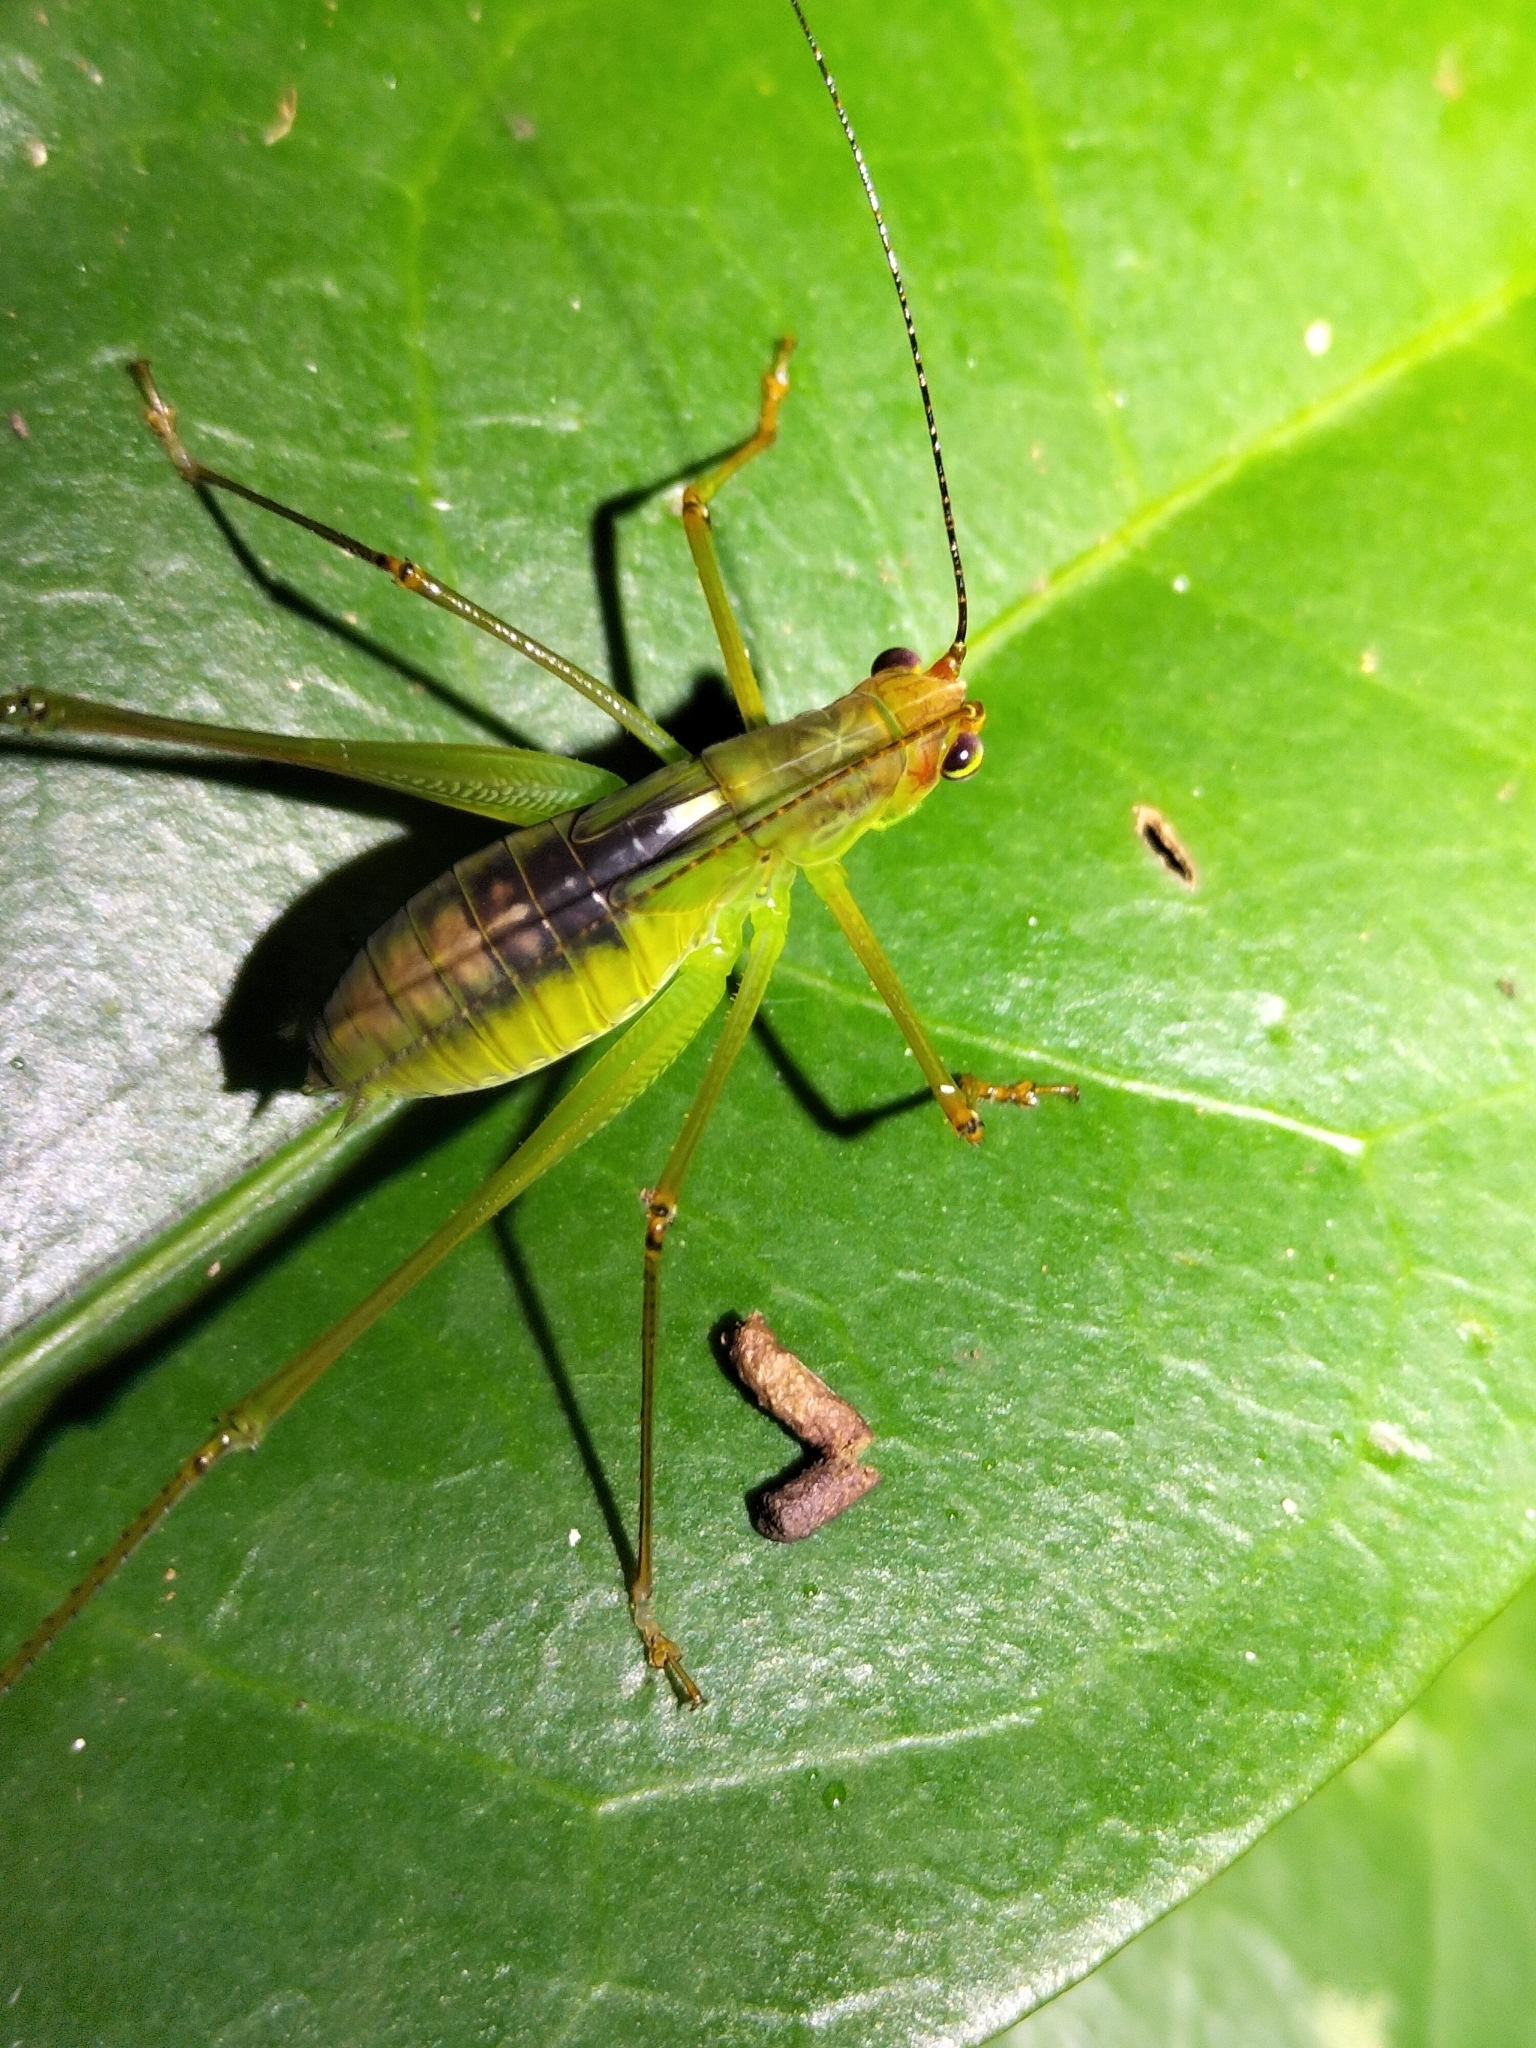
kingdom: Animalia
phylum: Arthropoda
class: Insecta
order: Orthoptera
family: Tettigoniidae
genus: Leucopodoptera
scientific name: Leucopodoptera eumundii
